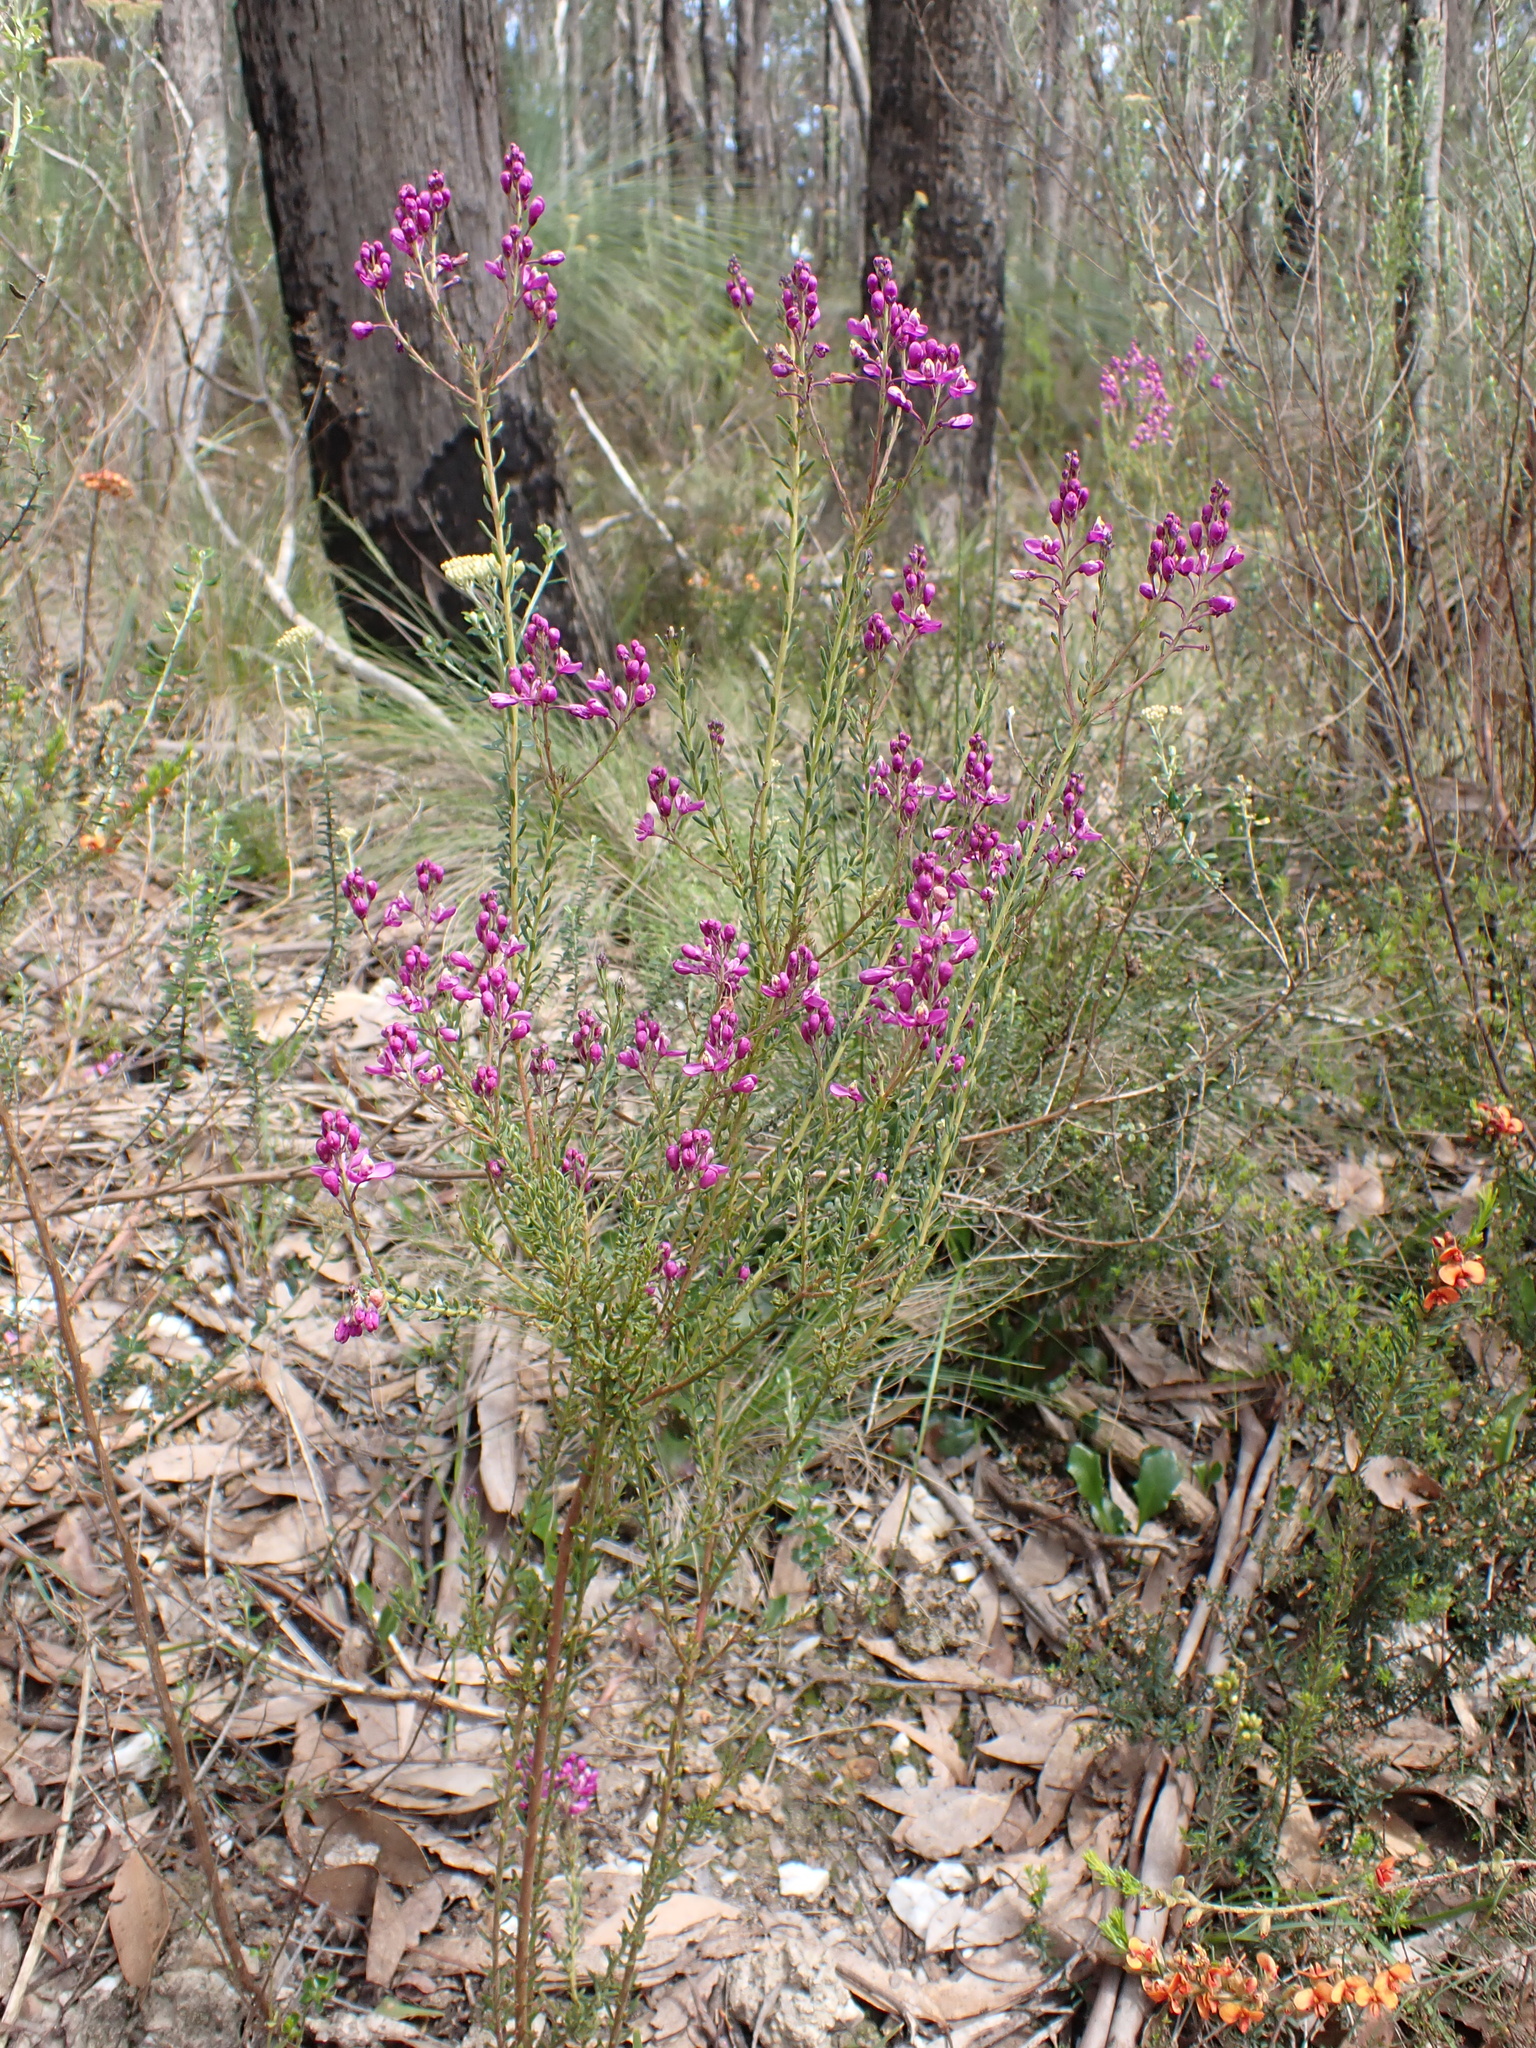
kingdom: Plantae
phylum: Tracheophyta
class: Magnoliopsida
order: Fabales
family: Polygalaceae
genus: Comesperma
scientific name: Comesperma ericinum
